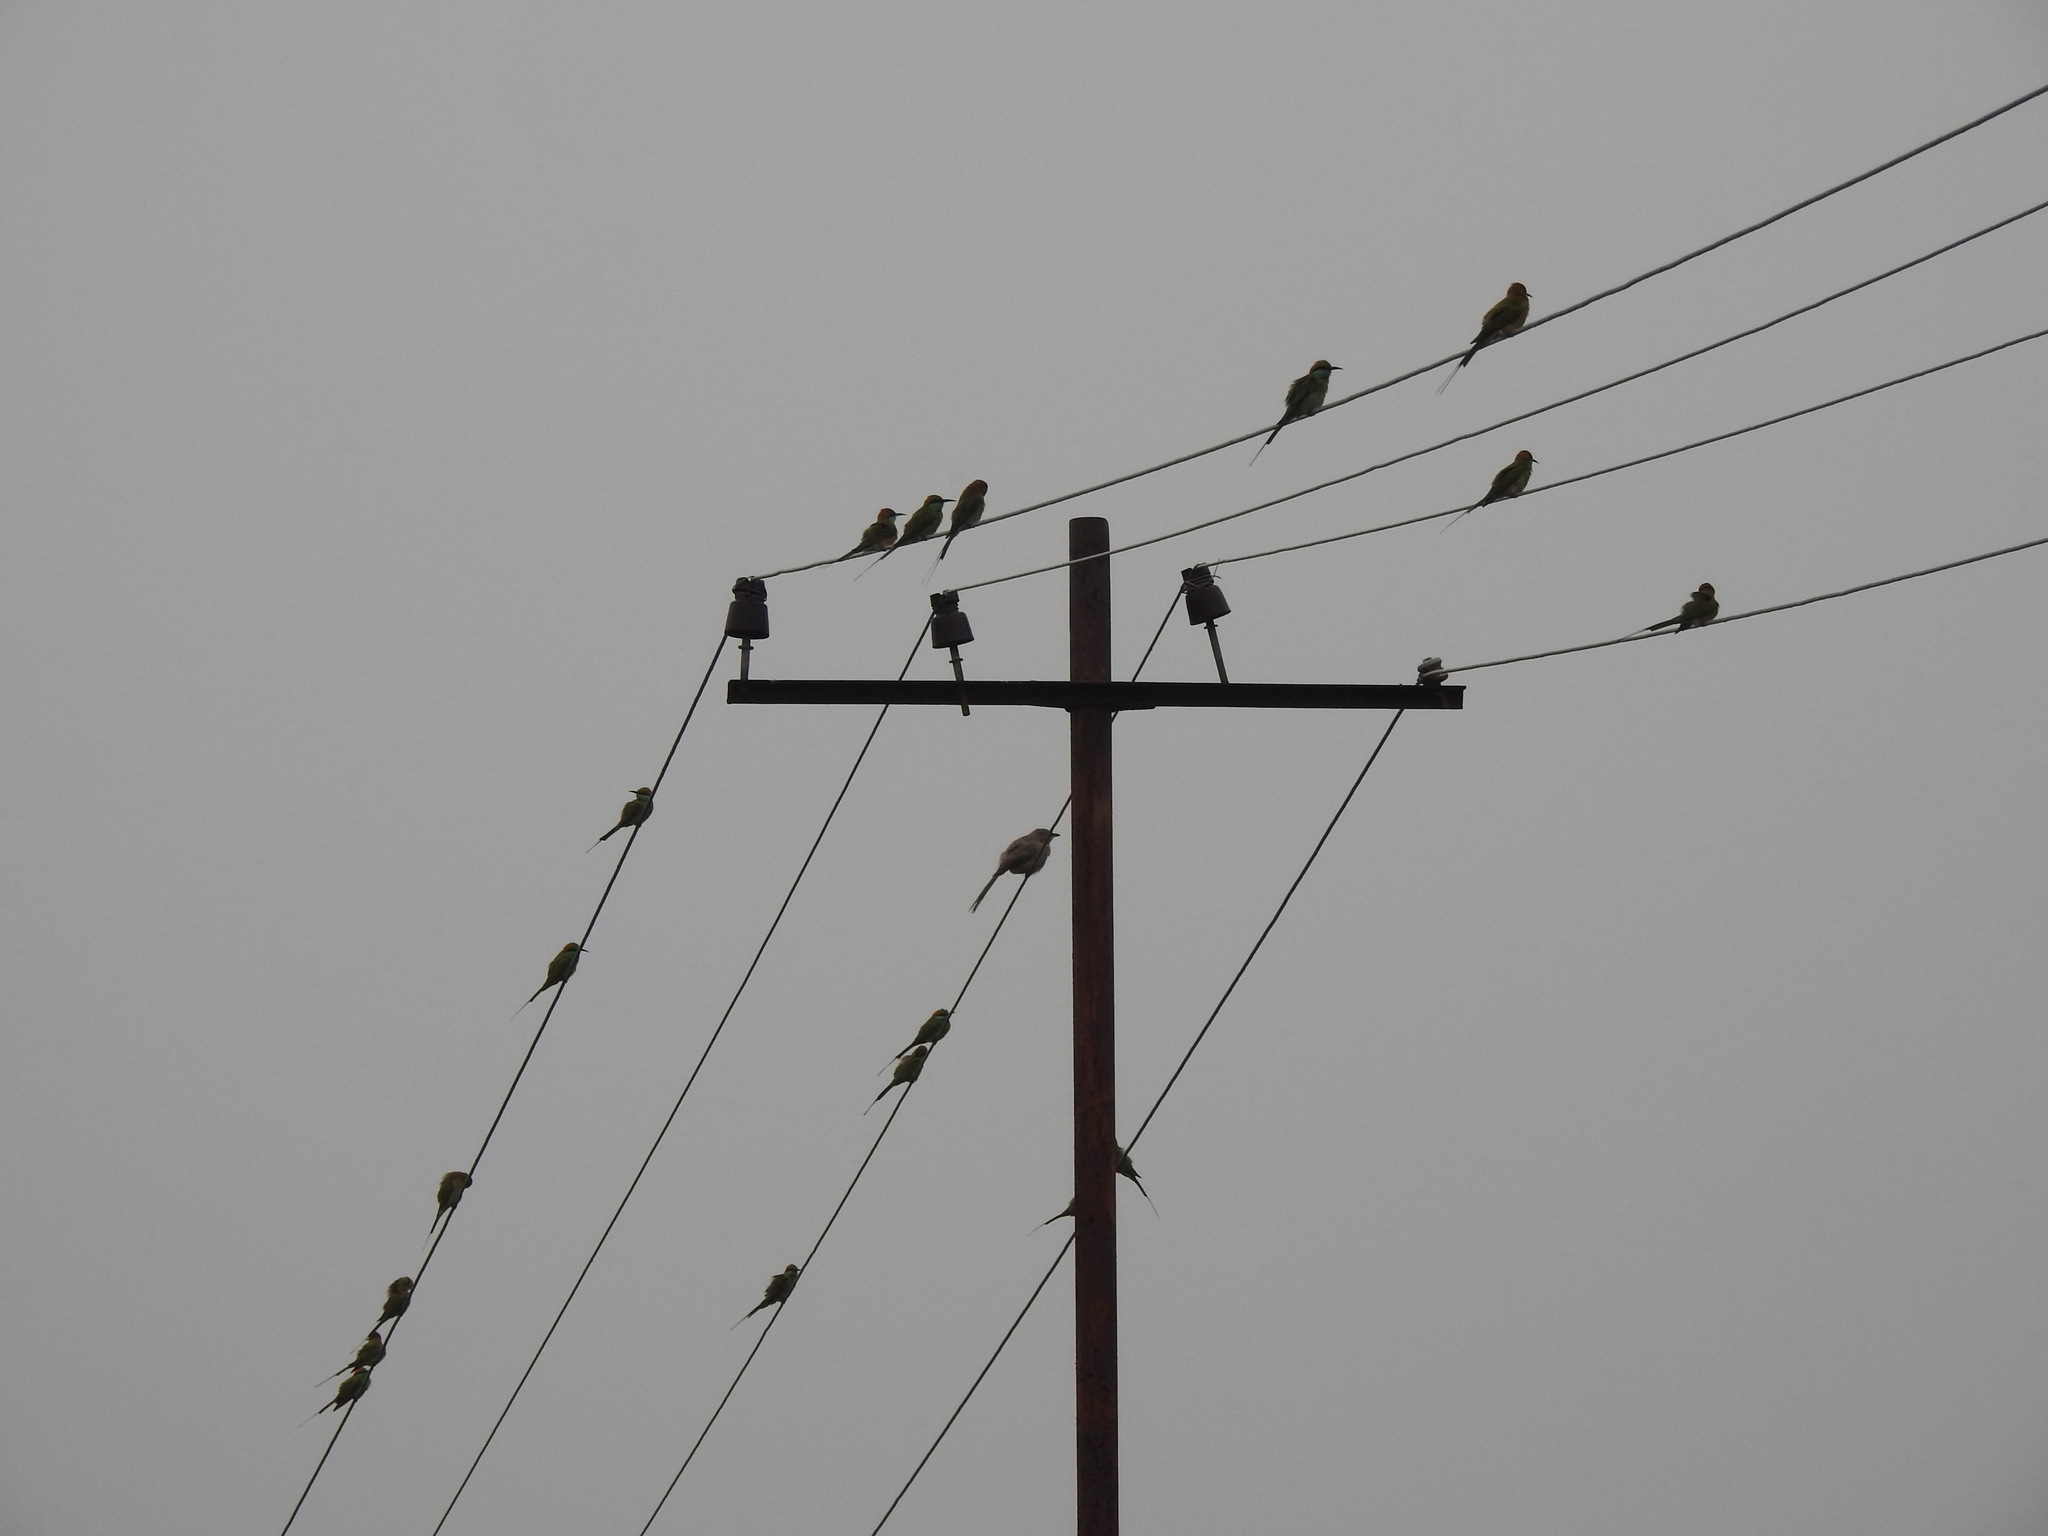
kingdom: Animalia
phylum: Chordata
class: Aves
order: Coraciiformes
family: Meropidae
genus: Merops
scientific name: Merops orientalis
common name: Green bee-eater
